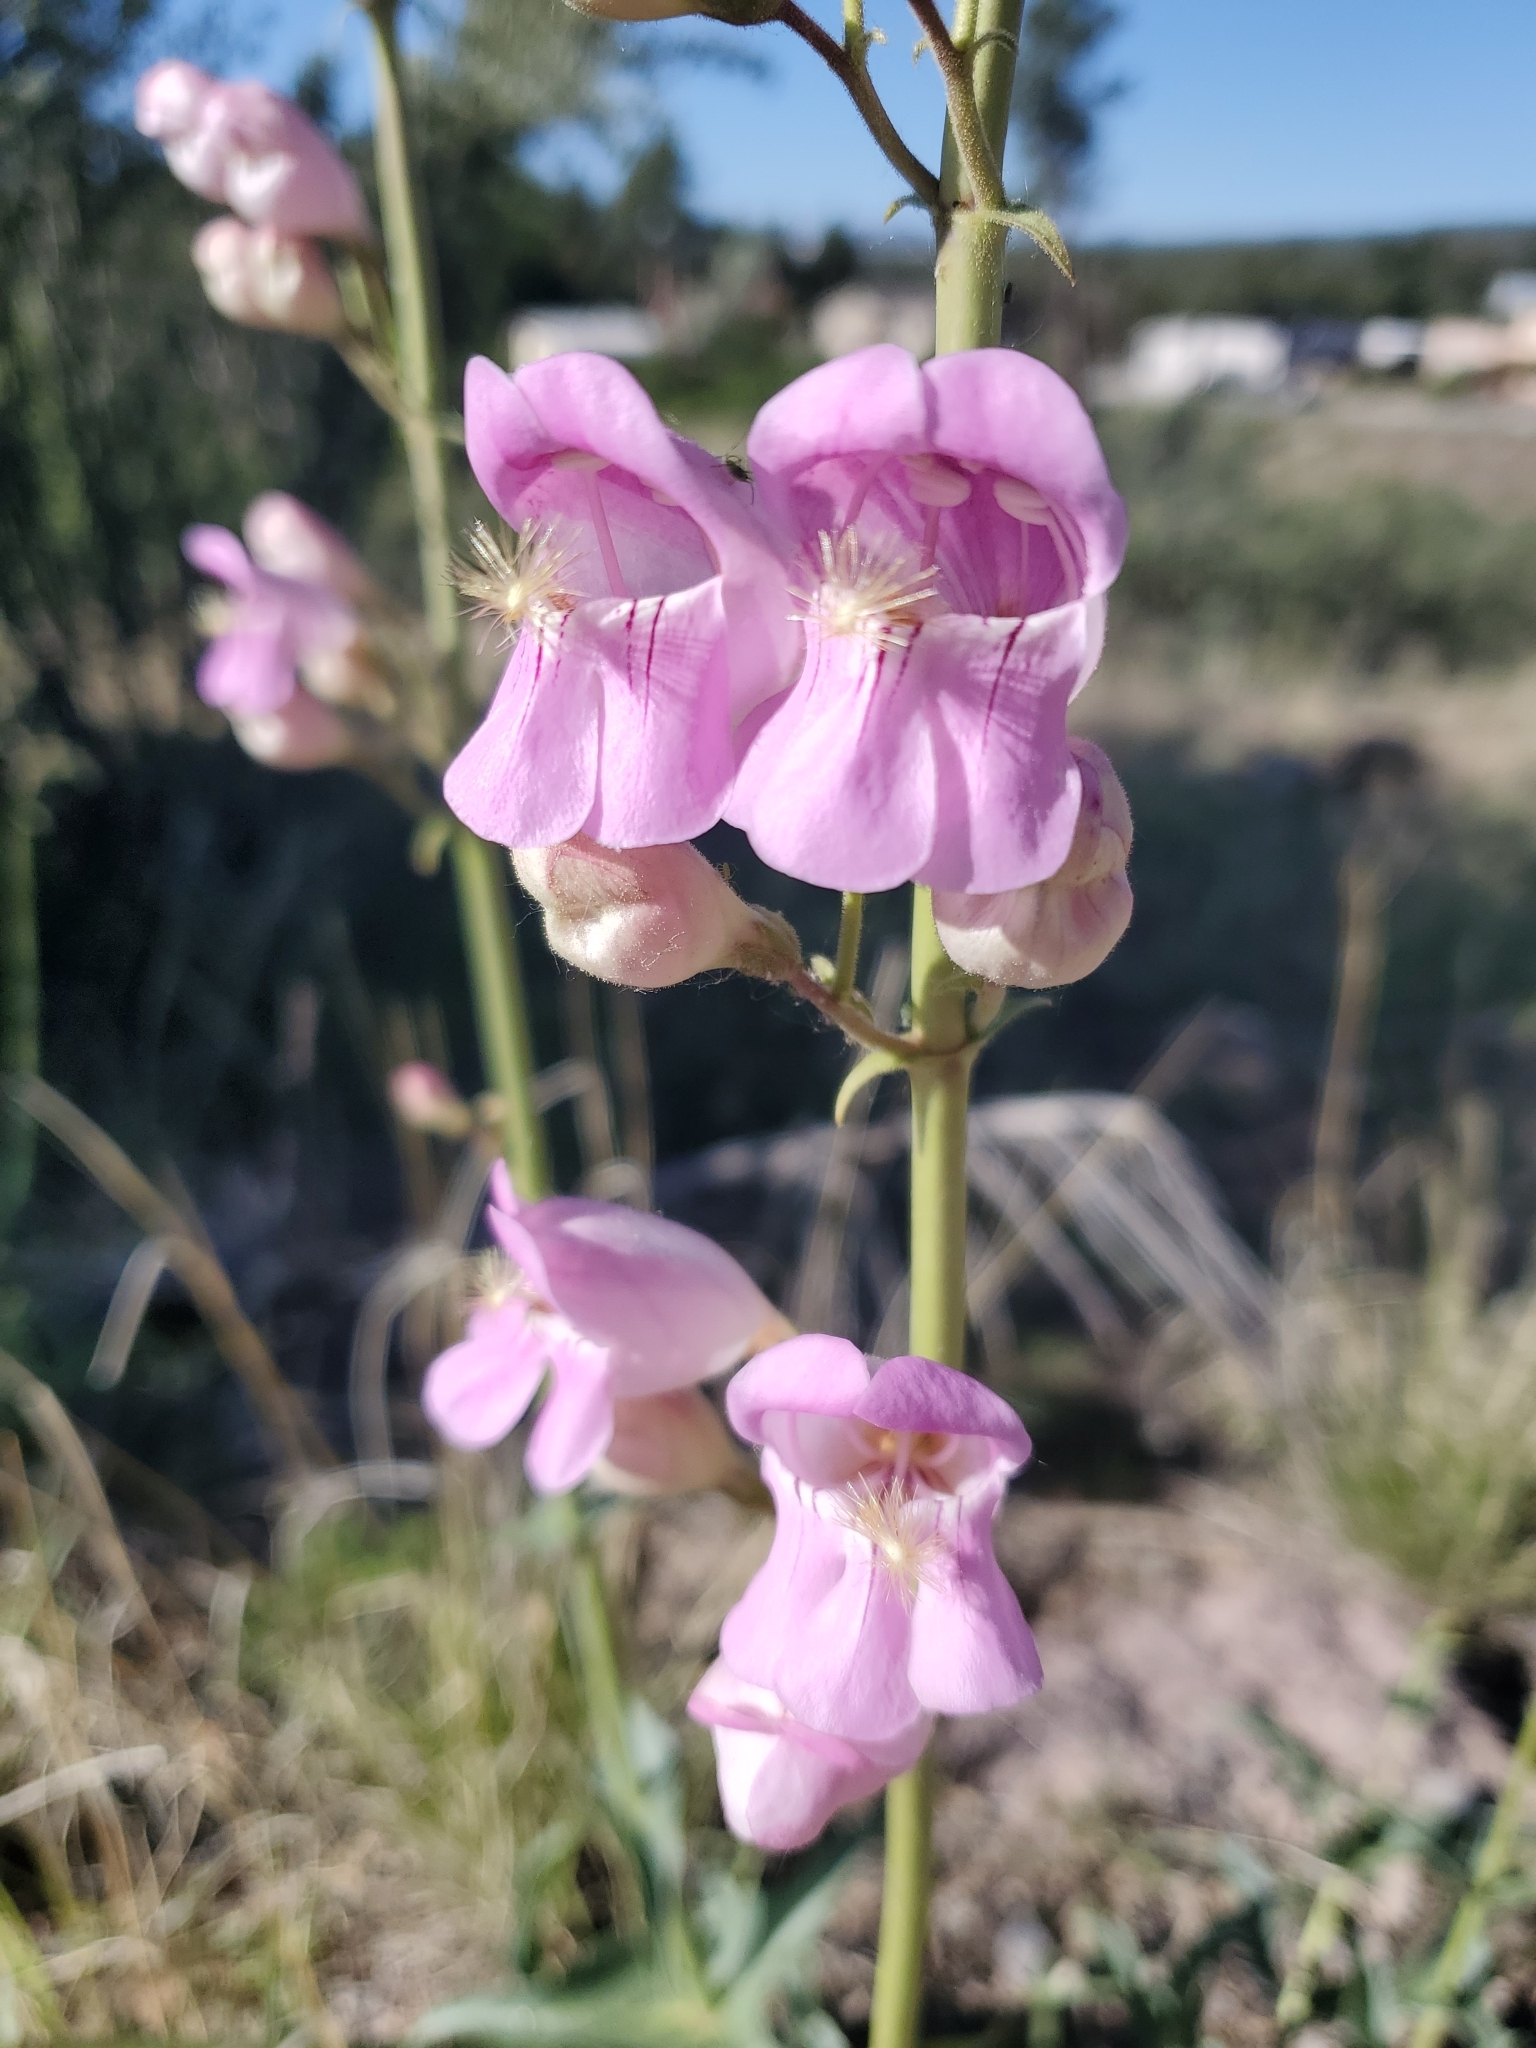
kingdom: Plantae
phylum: Tracheophyta
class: Magnoliopsida
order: Lamiales
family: Plantaginaceae
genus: Penstemon
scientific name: Penstemon palmeri
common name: Palmer penstemon
